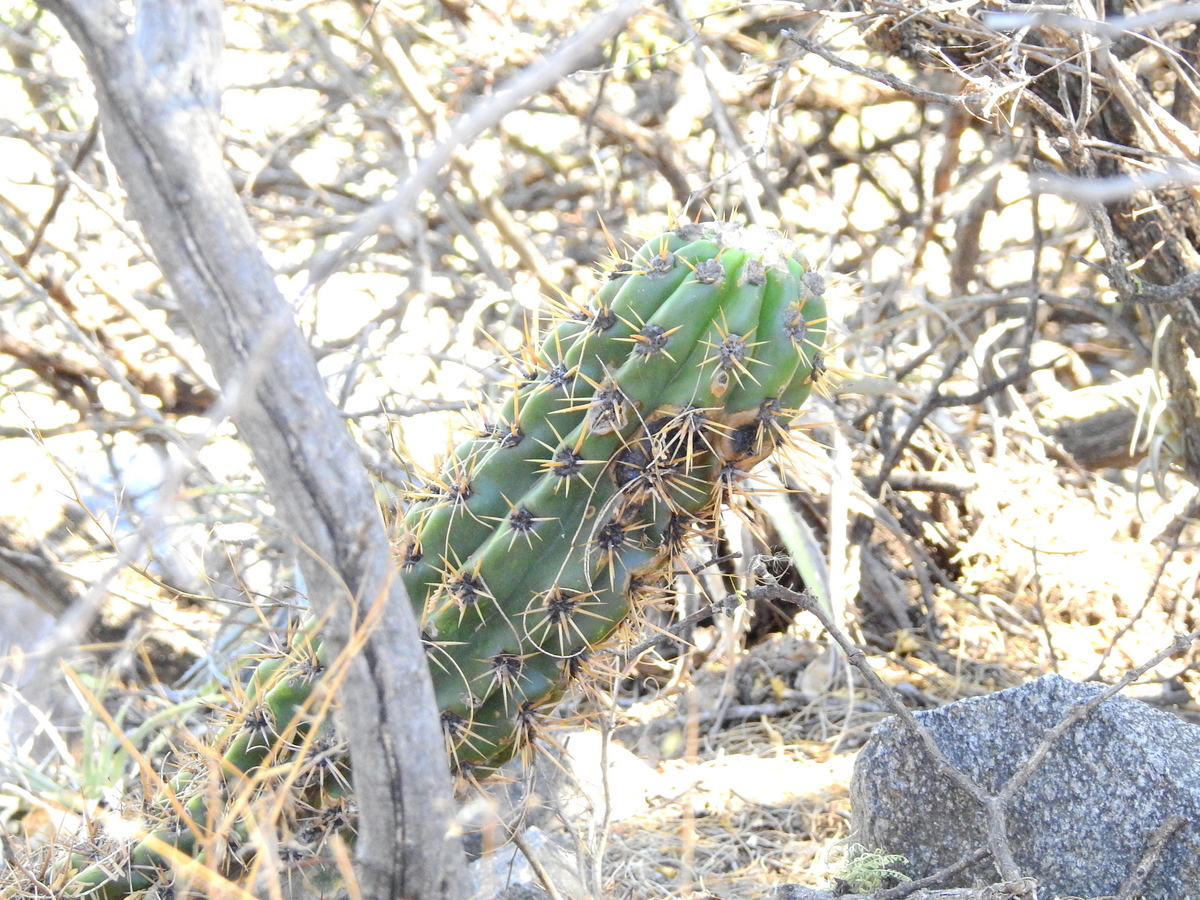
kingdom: Plantae
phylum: Tracheophyta
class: Magnoliopsida
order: Caryophyllales
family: Cactaceae
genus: Soehrensia
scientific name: Soehrensia candicans
